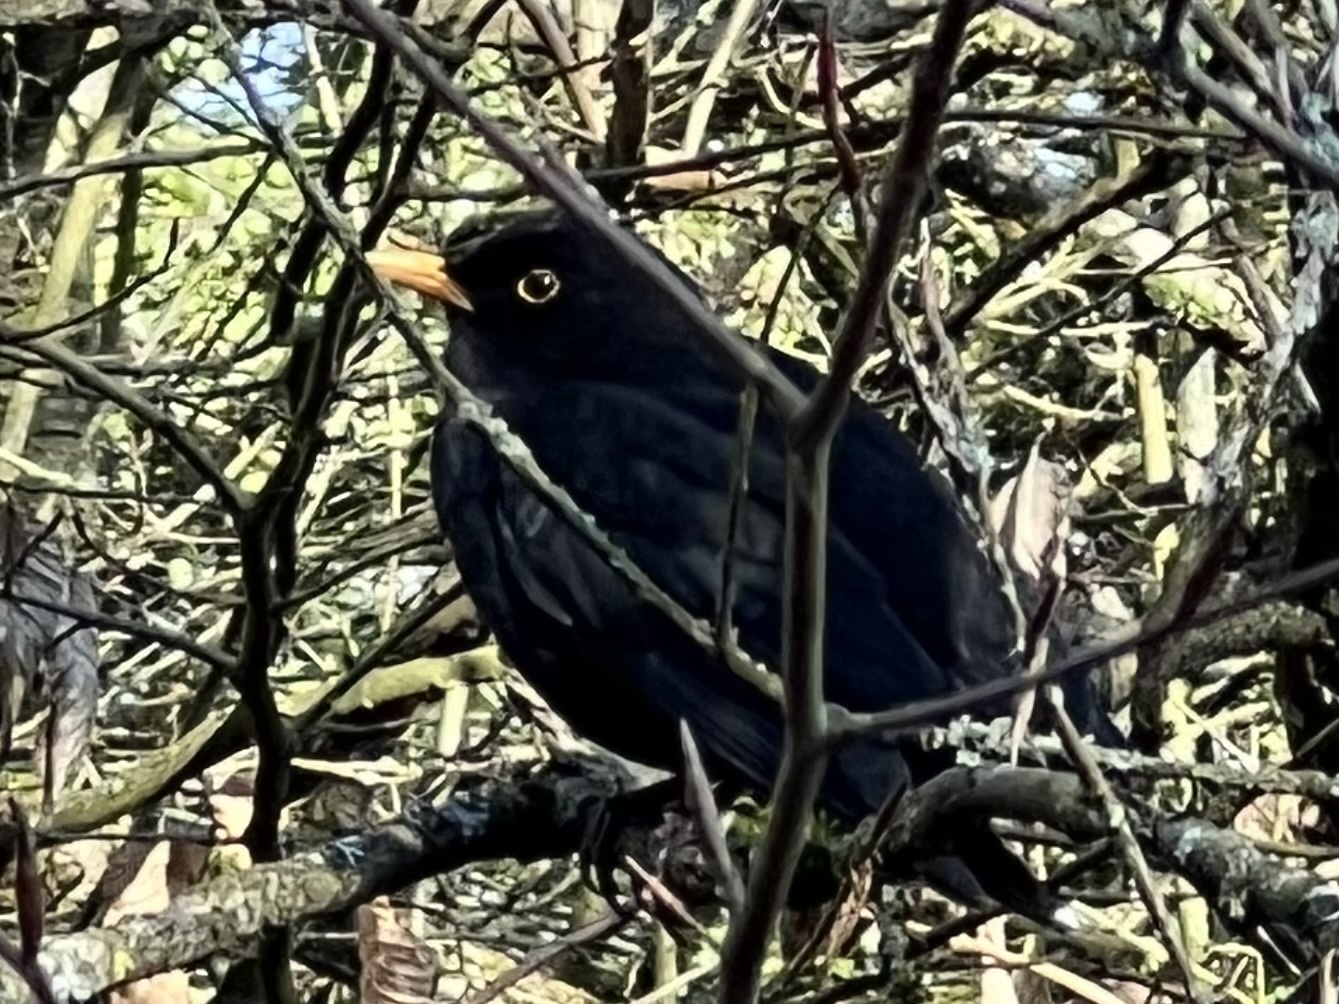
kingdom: Animalia
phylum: Chordata
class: Aves
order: Passeriformes
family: Turdidae
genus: Turdus
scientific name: Turdus merula
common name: Common blackbird
